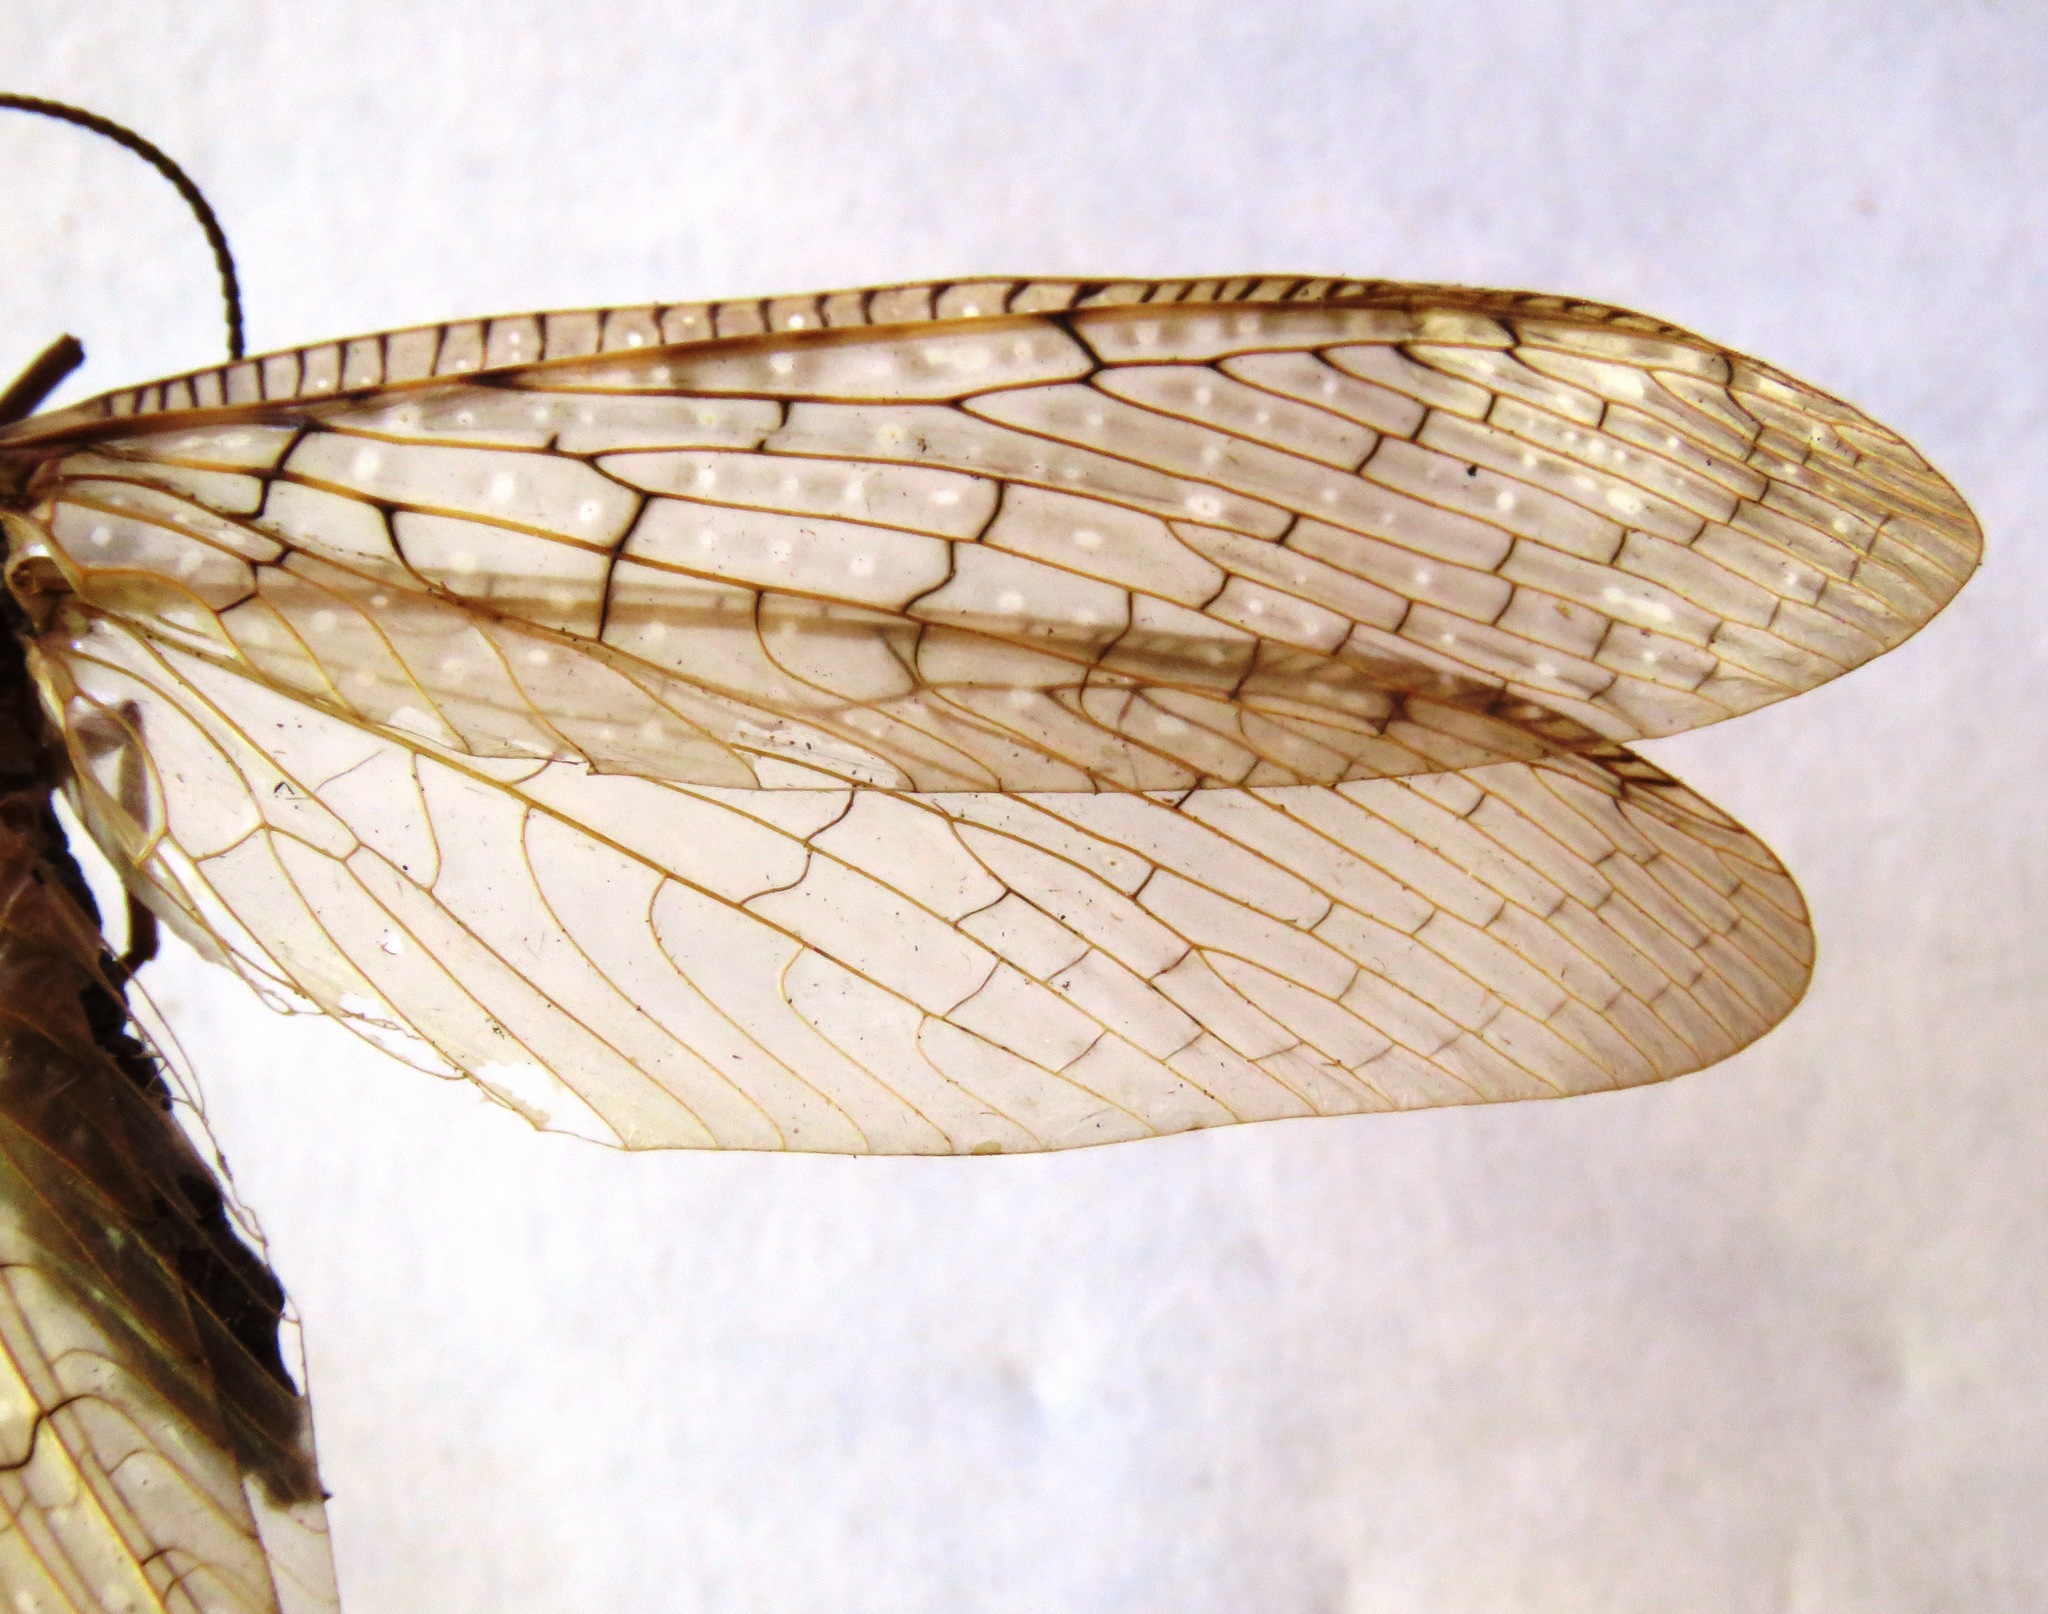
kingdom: Animalia
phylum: Arthropoda
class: Insecta
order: Megaloptera
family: Corydalidae
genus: Corydalus
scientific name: Corydalus magnus
